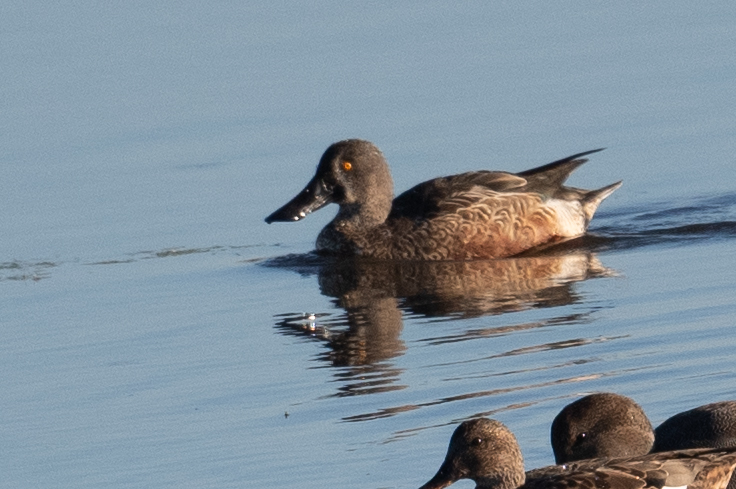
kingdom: Animalia
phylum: Chordata
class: Aves
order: Anseriformes
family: Anatidae
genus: Spatula
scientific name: Spatula clypeata
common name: Northern shoveler
